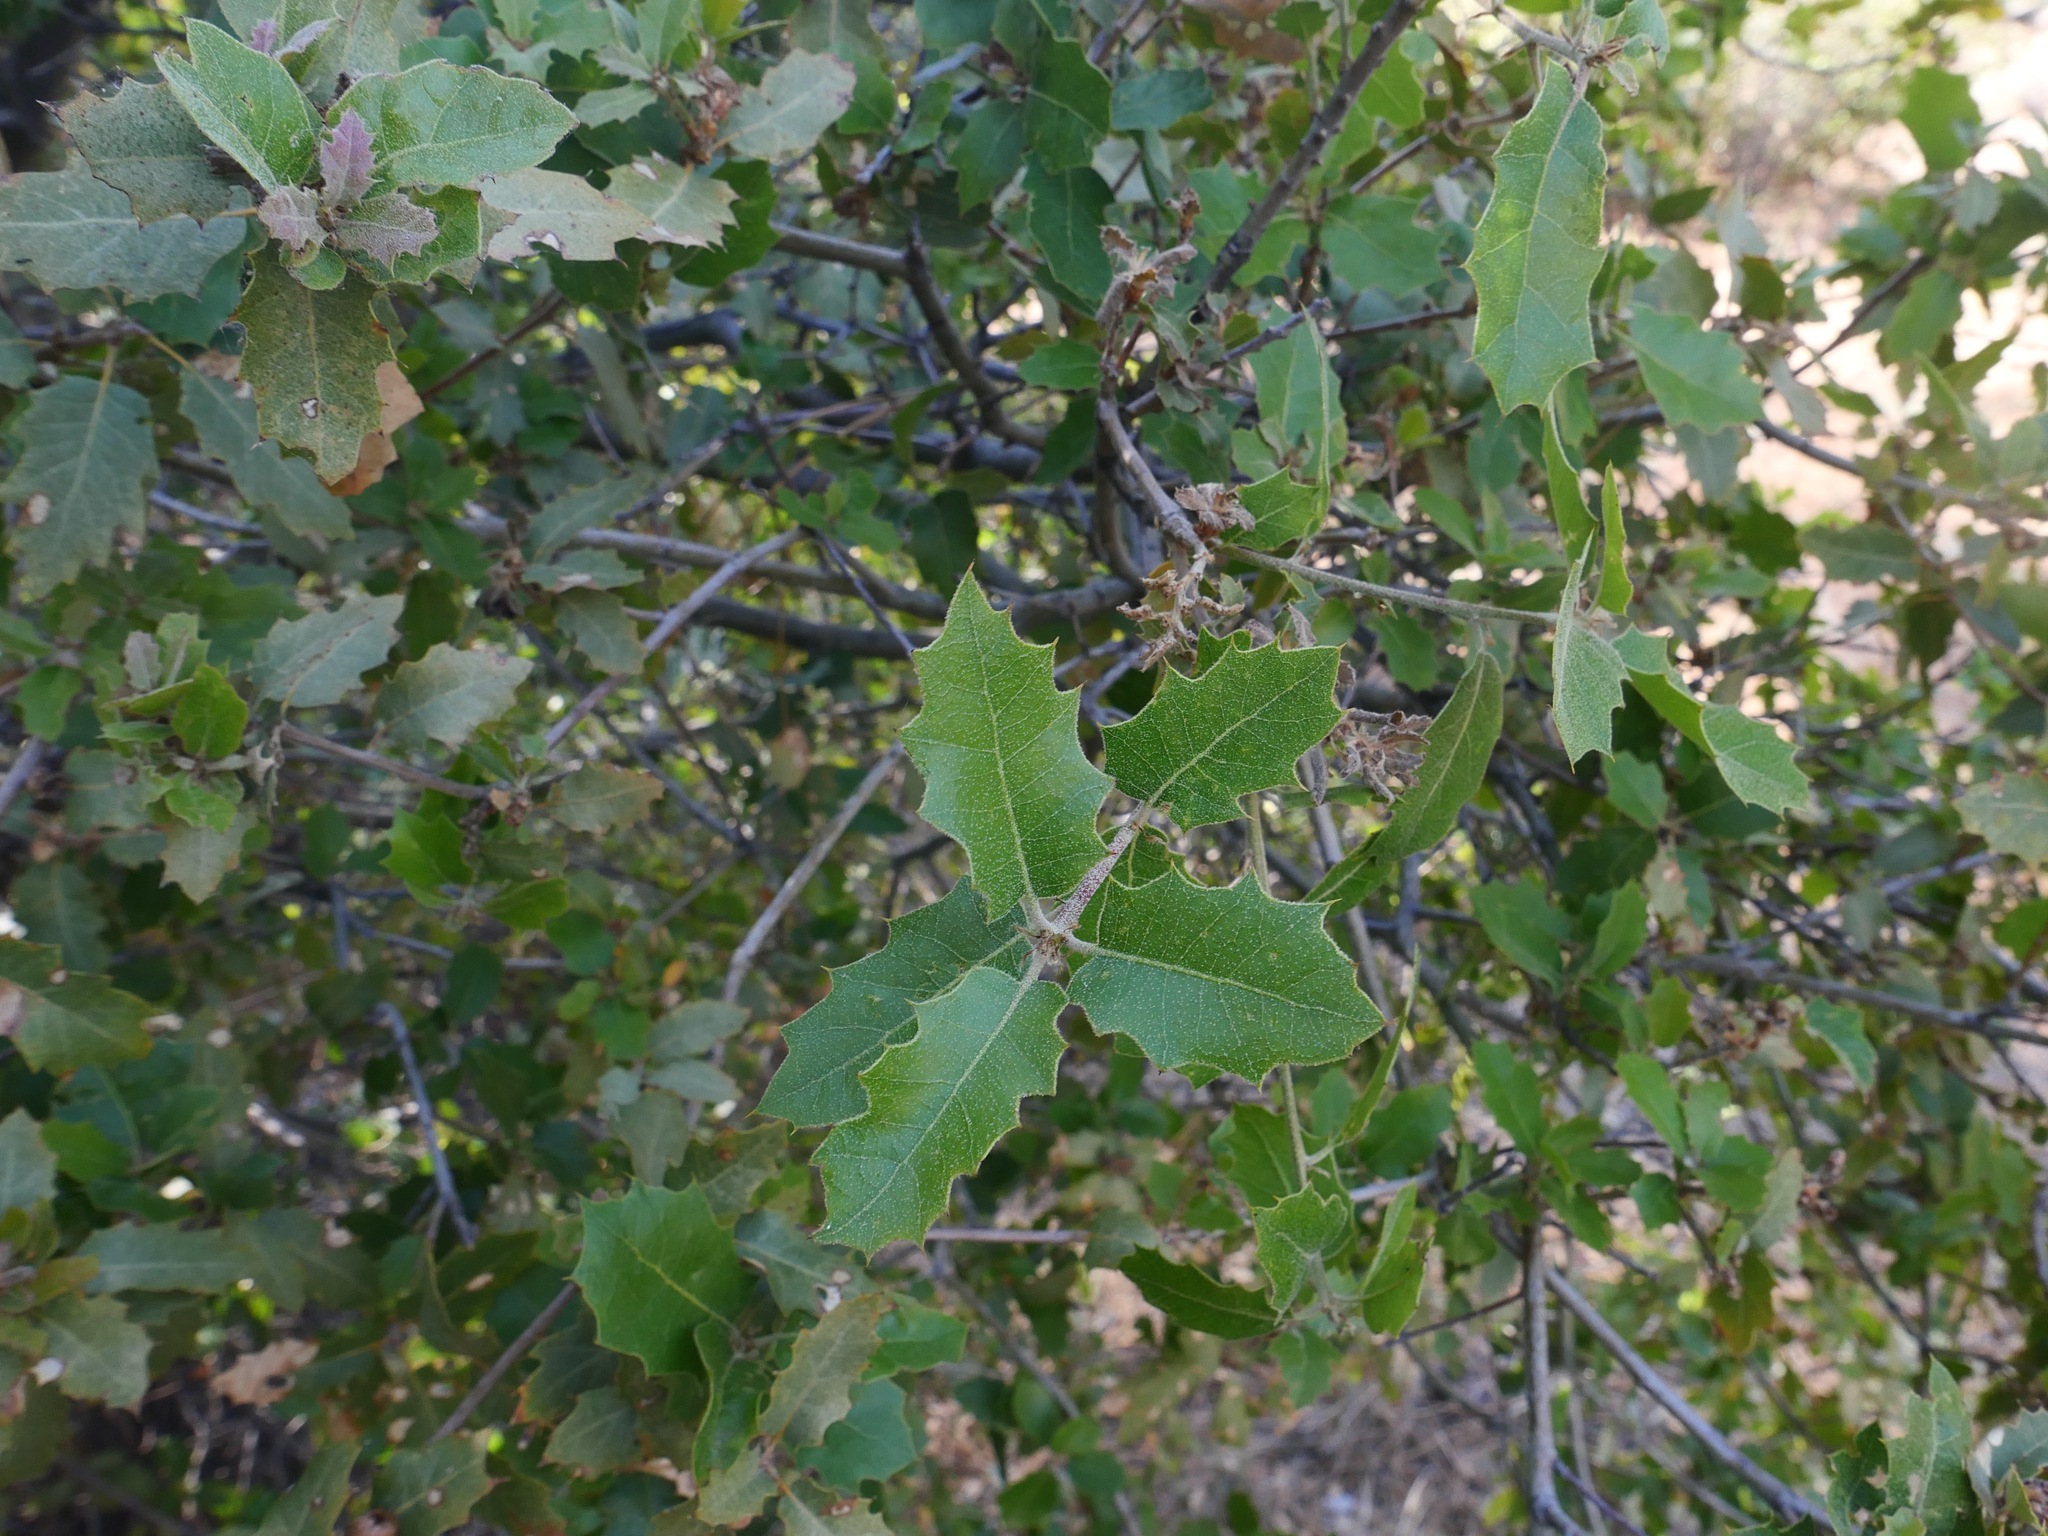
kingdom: Plantae
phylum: Tracheophyta
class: Magnoliopsida
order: Fagales
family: Fagaceae
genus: Quercus
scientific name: Quercus wislizeni
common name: Interior live oak
